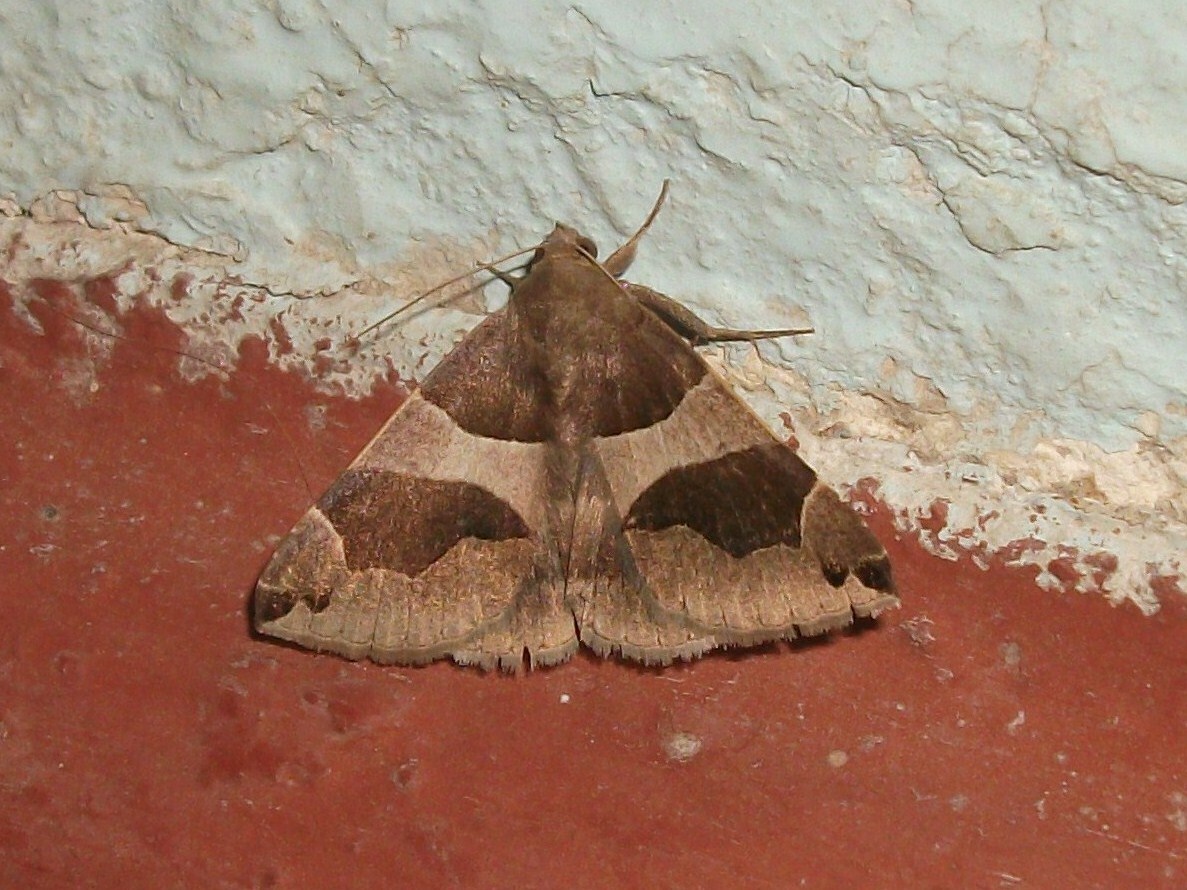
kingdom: Animalia
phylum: Arthropoda
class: Insecta
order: Lepidoptera
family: Erebidae
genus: Dysgonia
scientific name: Dysgonia algira
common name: Passenger
